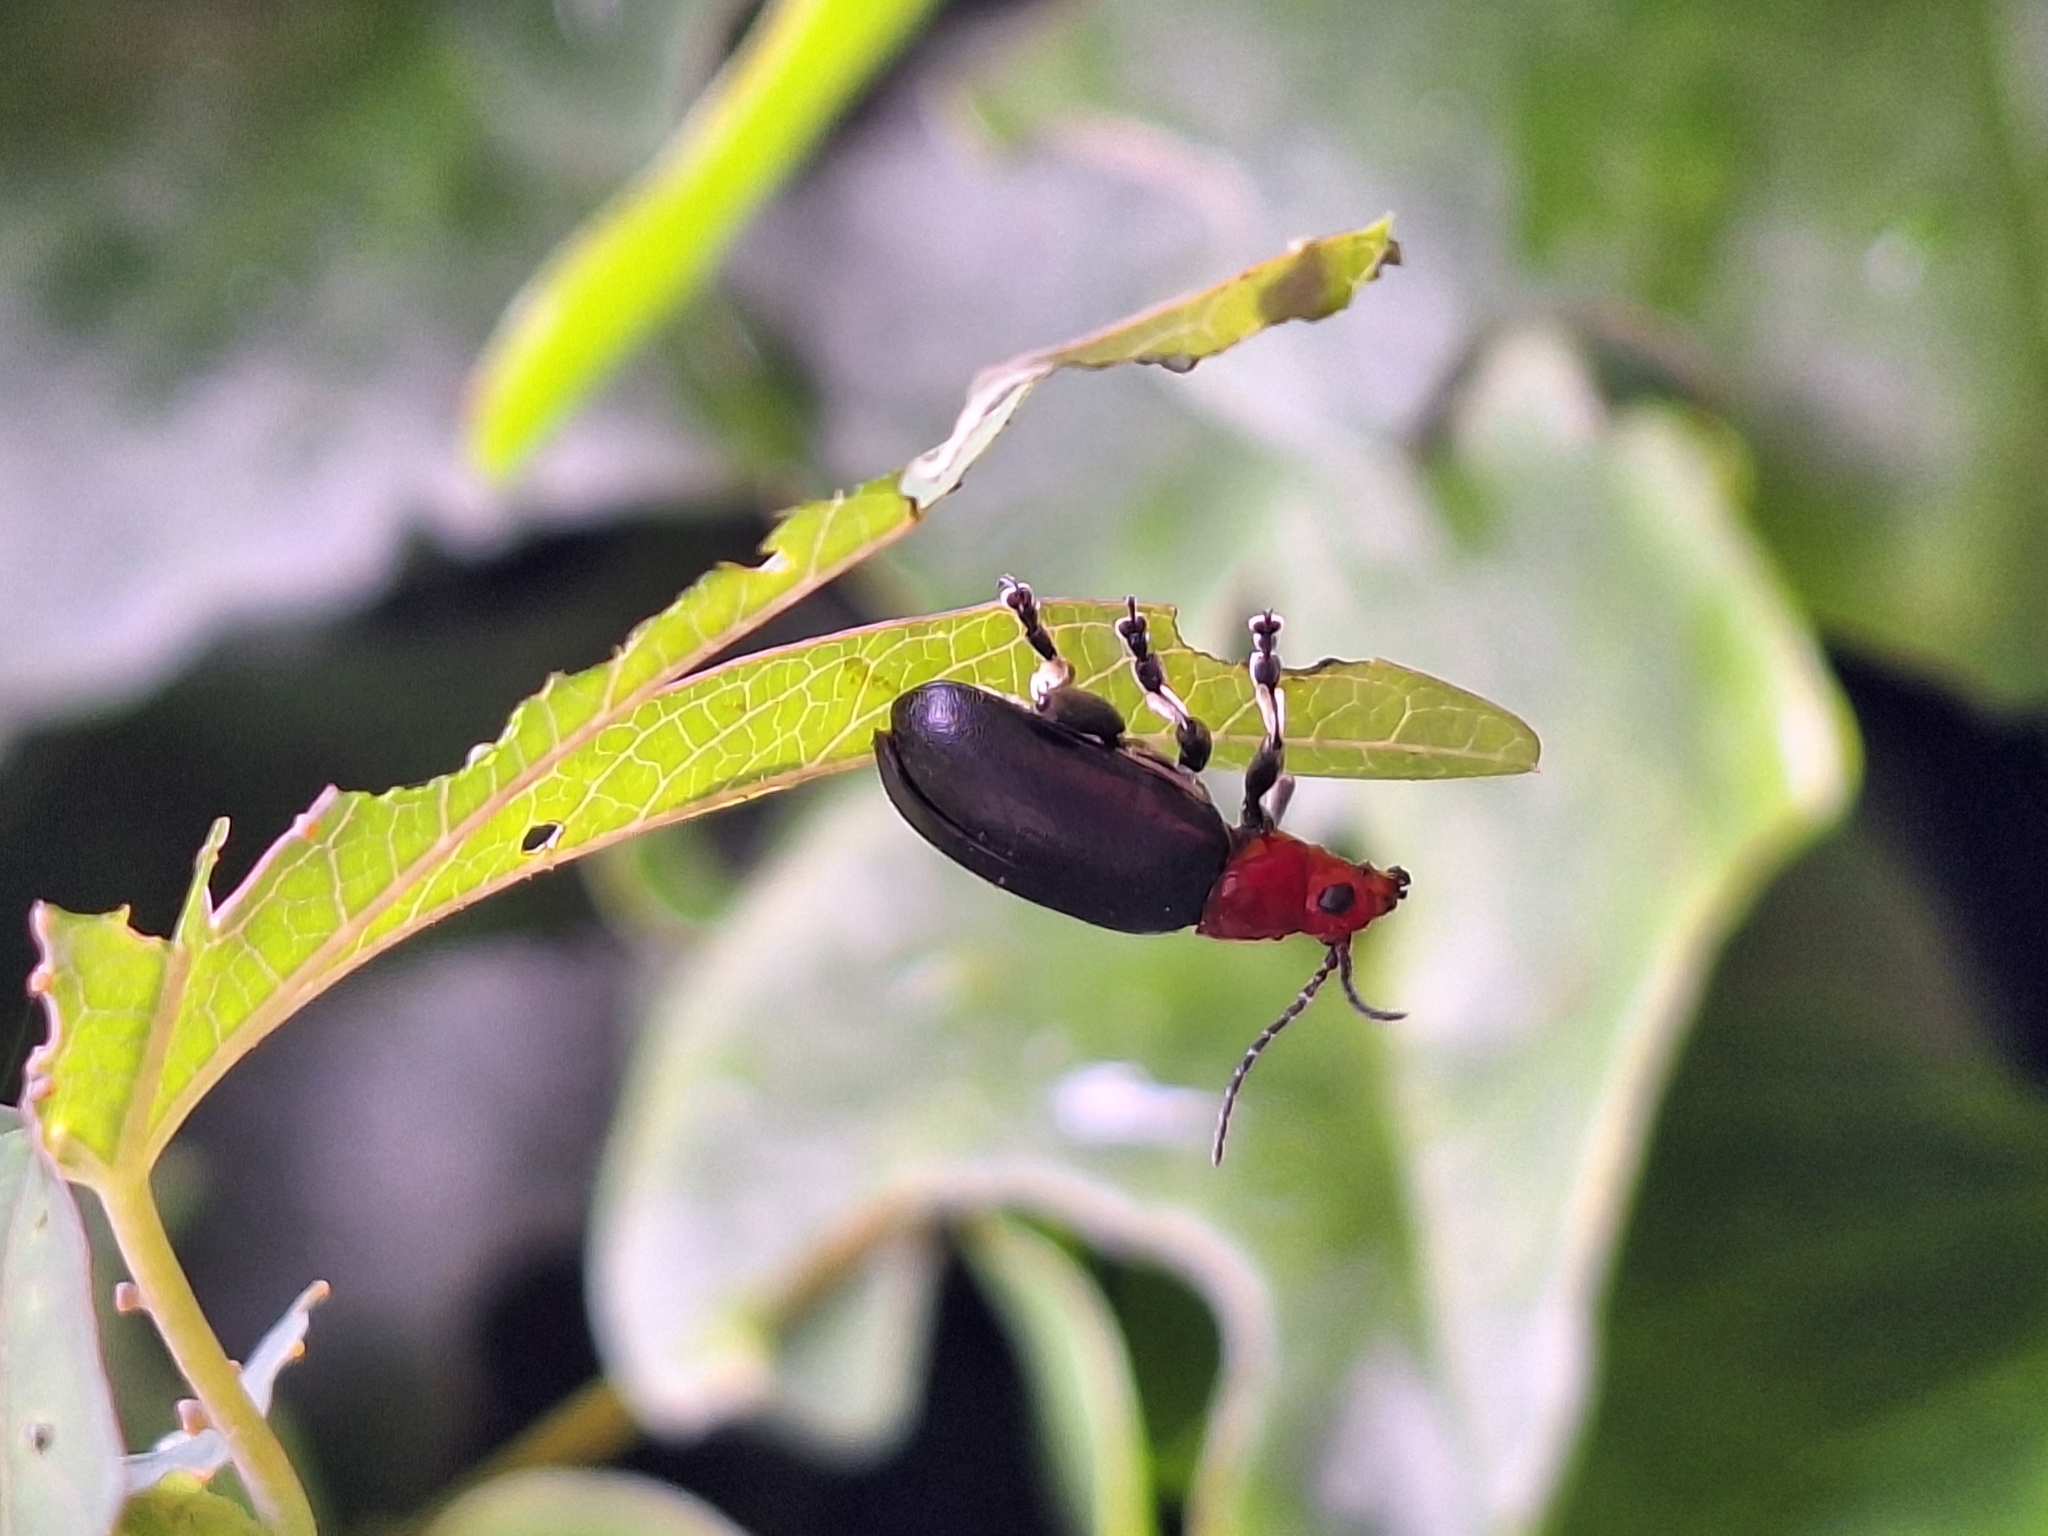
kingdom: Animalia
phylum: Arthropoda
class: Insecta
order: Coleoptera
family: Chrysomelidae
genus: Cacoscelis
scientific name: Cacoscelis
